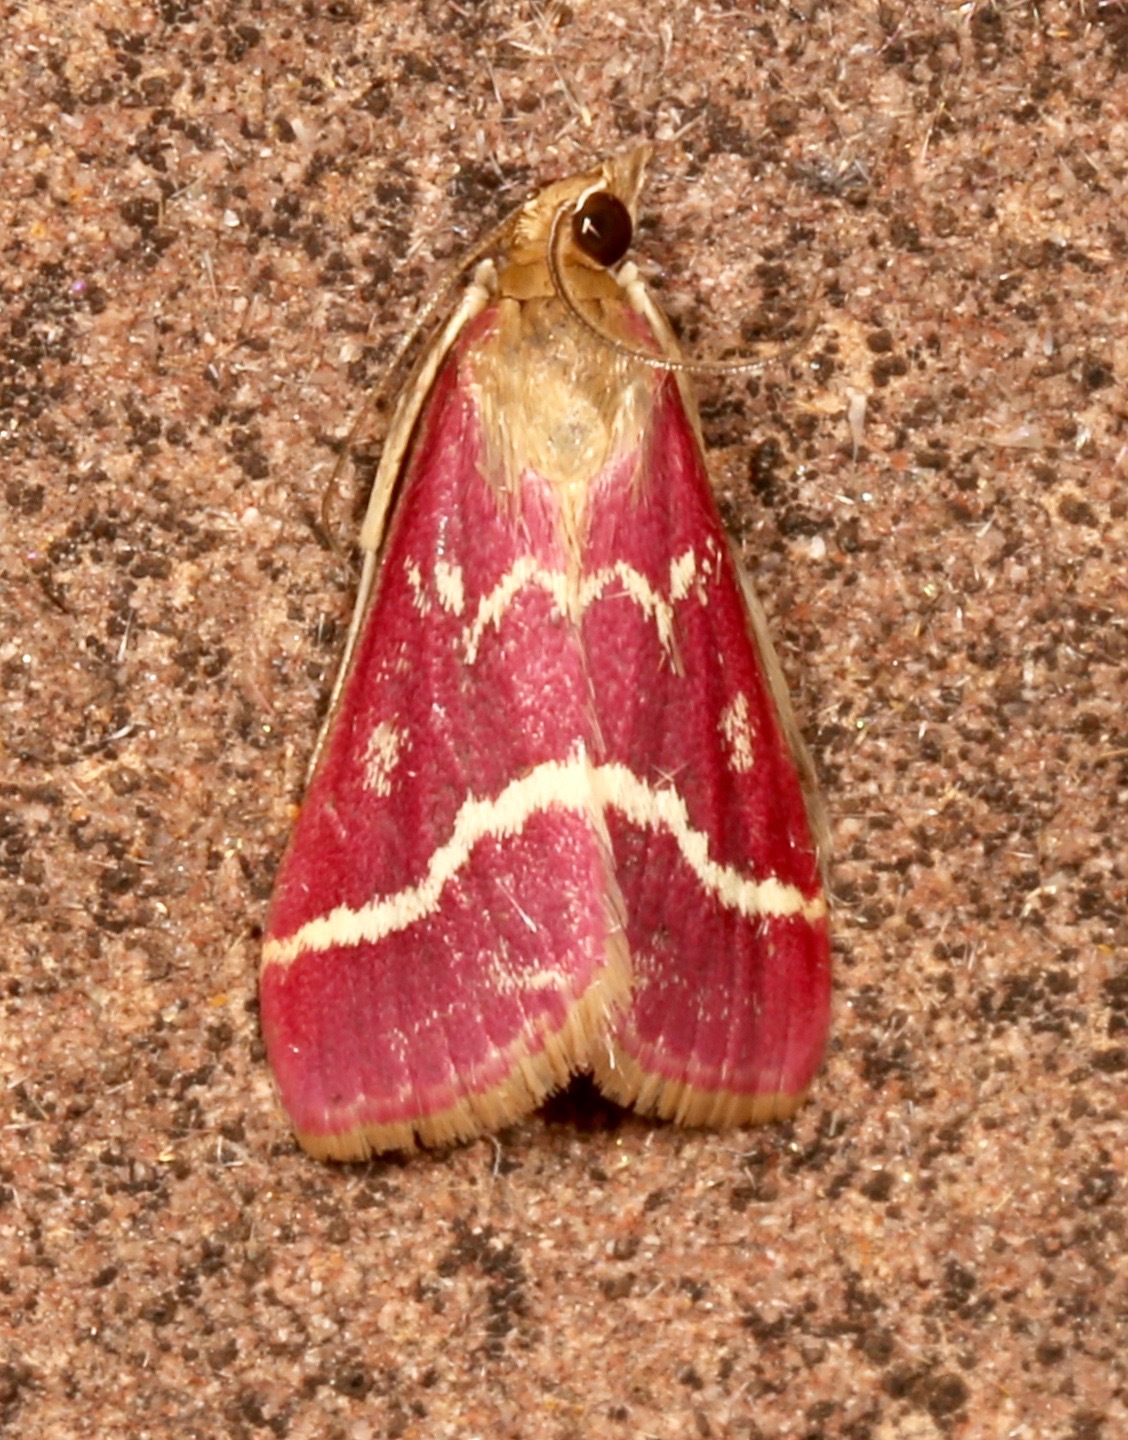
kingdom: Animalia
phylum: Arthropoda
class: Insecta
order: Lepidoptera
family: Crambidae
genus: Pyrausta
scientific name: Pyrausta volupialis
